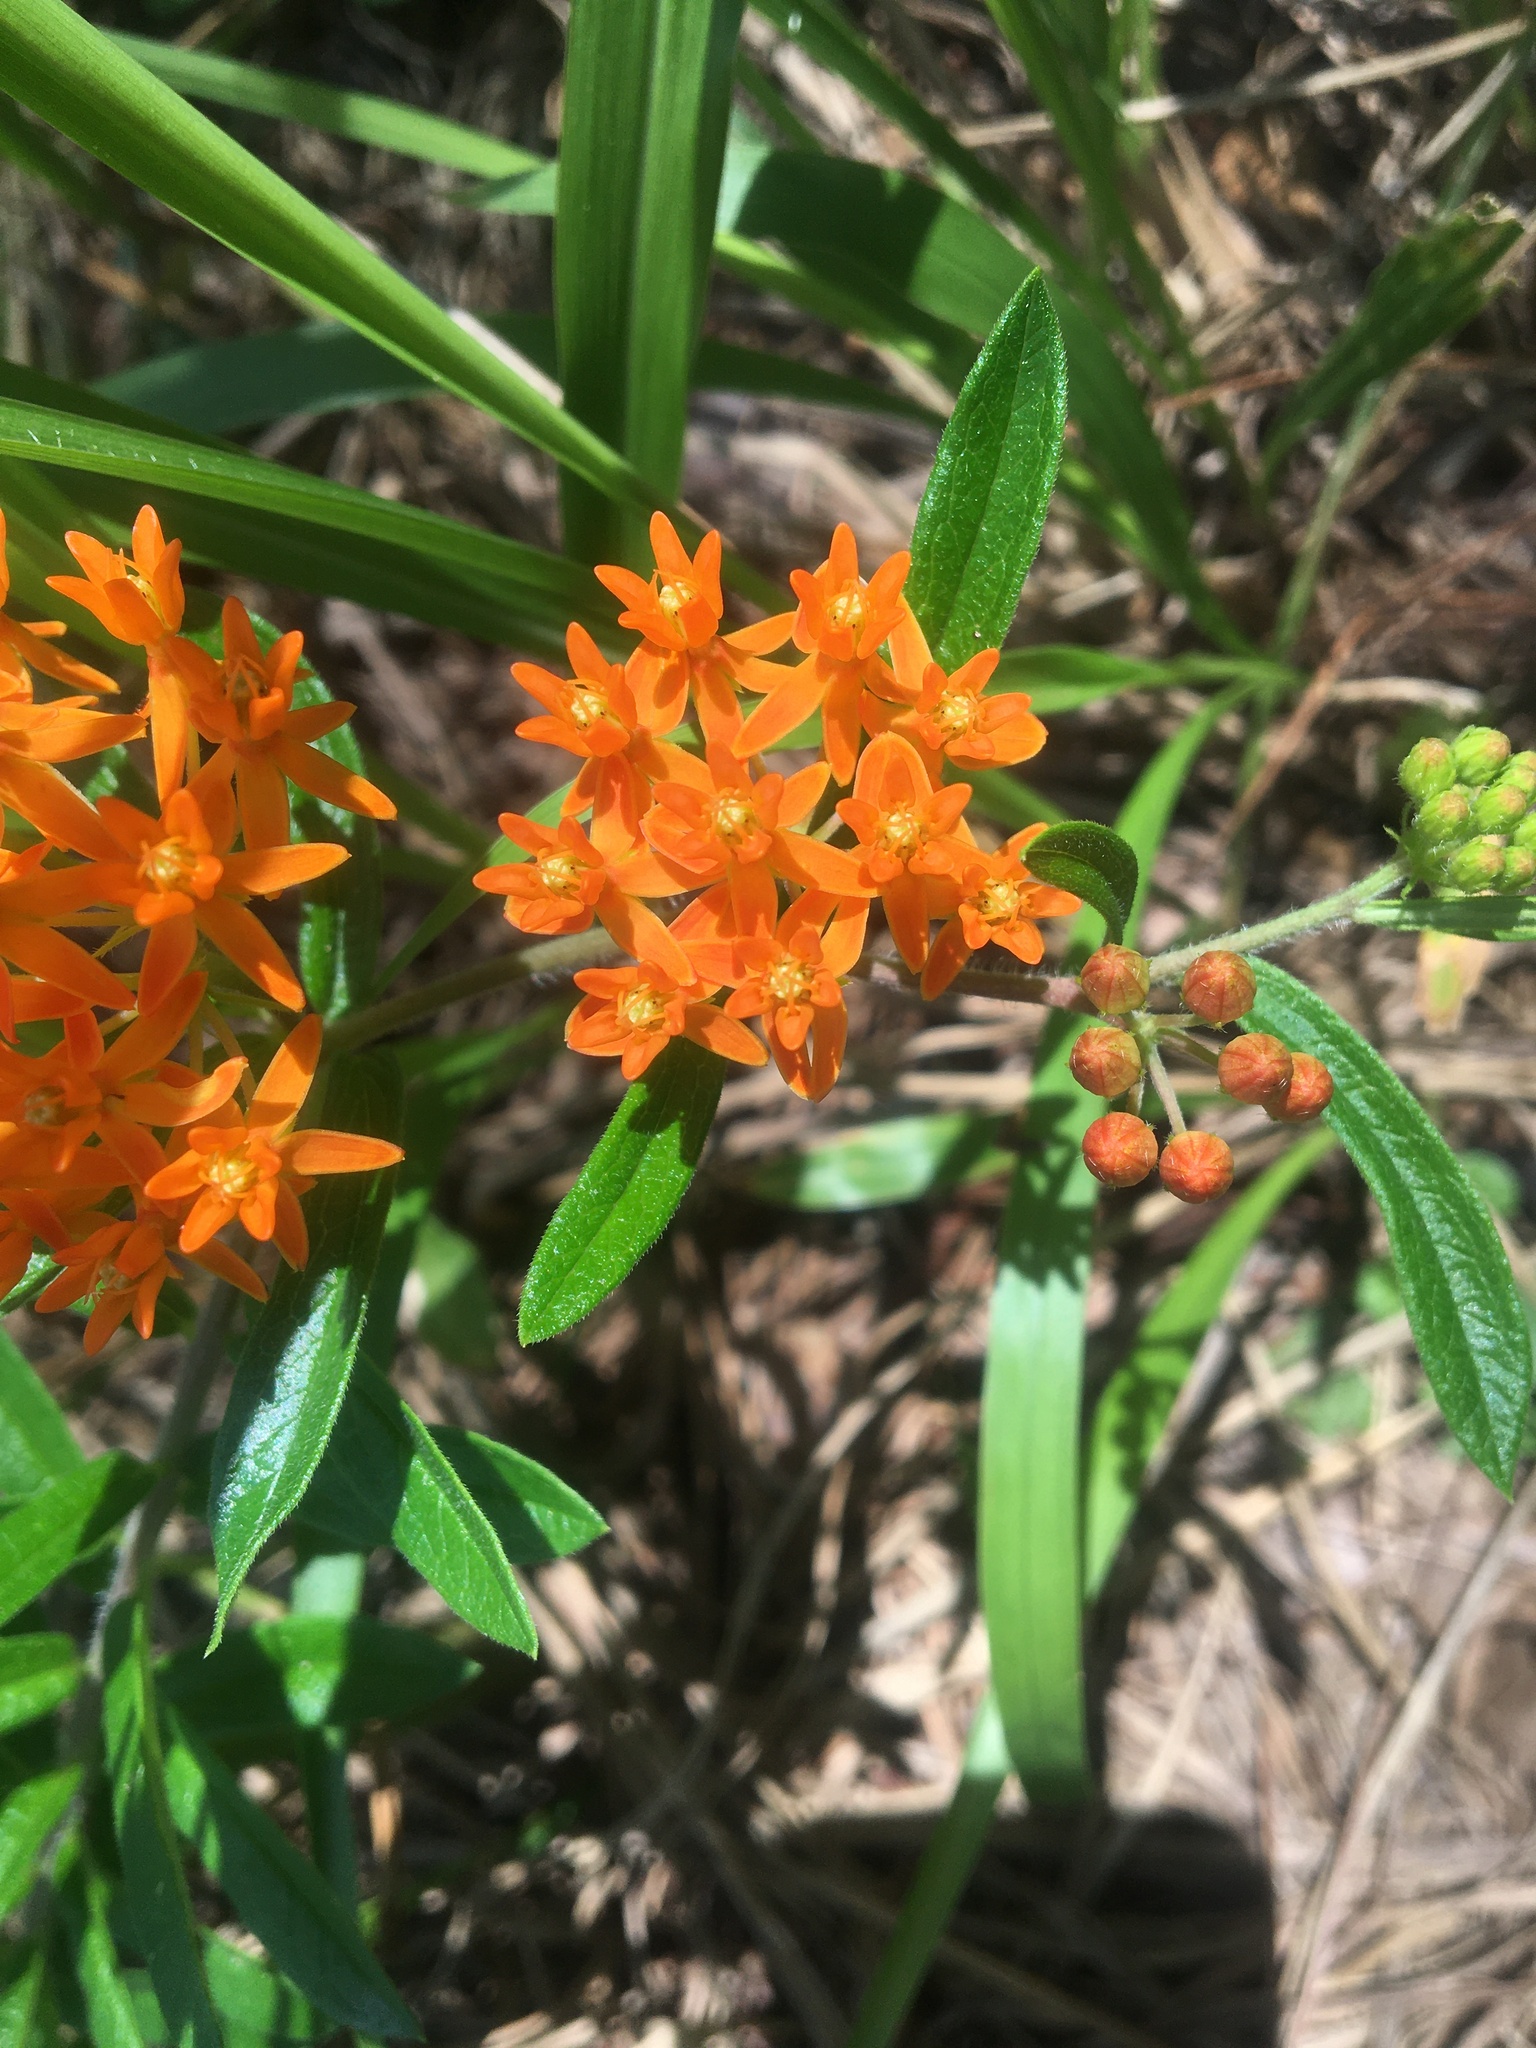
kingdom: Plantae
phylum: Tracheophyta
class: Magnoliopsida
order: Gentianales
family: Apocynaceae
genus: Asclepias
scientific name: Asclepias tuberosa
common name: Butterfly milkweed
